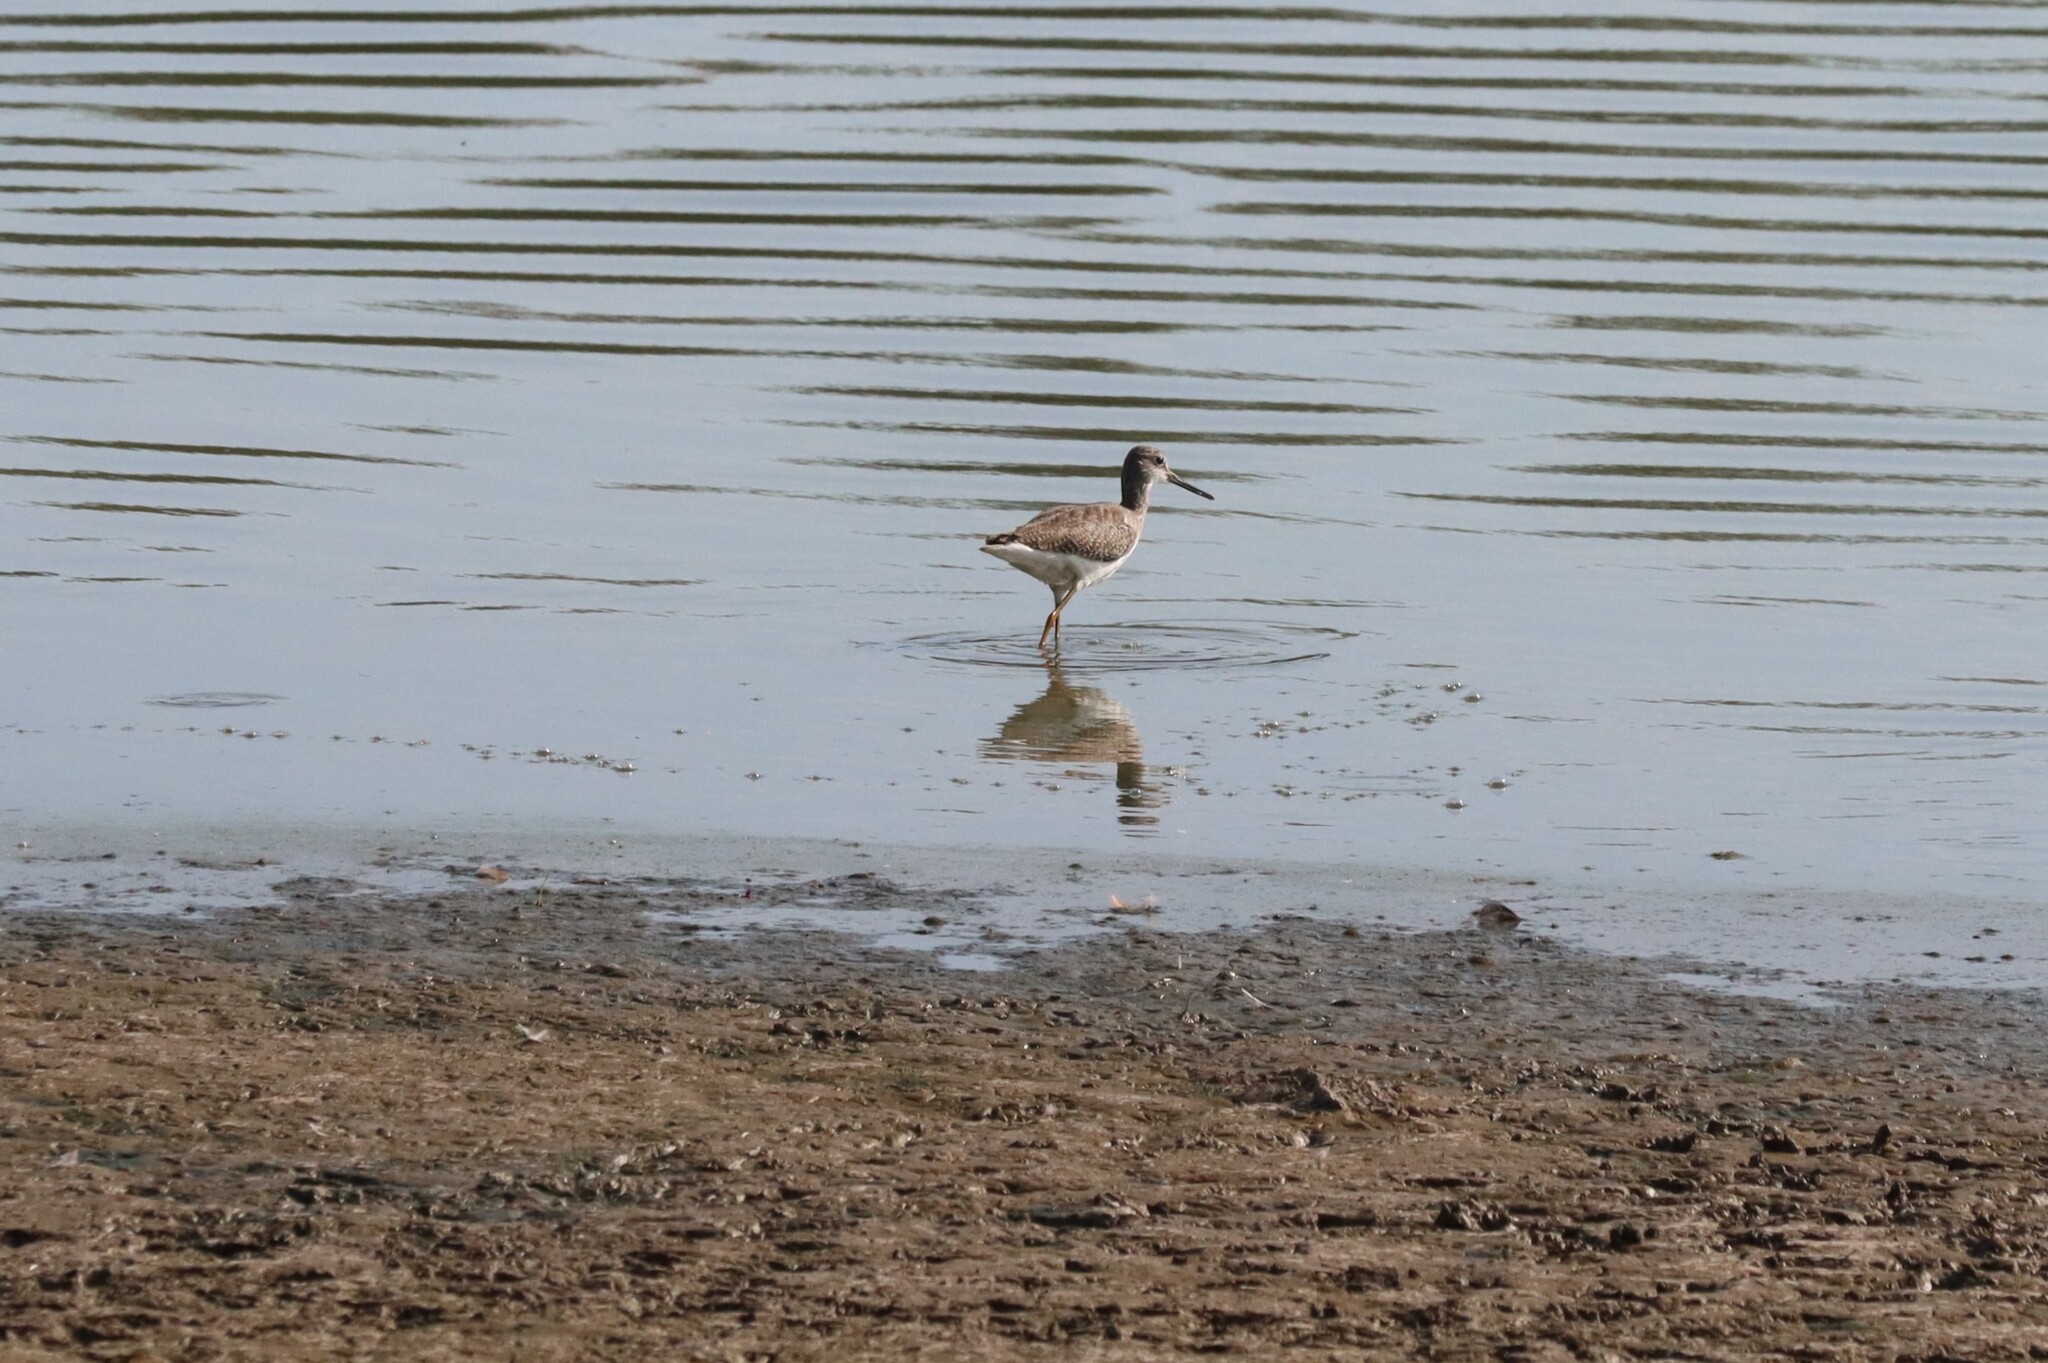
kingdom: Animalia
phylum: Chordata
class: Aves
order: Charadriiformes
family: Scolopacidae
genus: Tringa
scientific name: Tringa melanoleuca
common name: Greater yellowlegs
